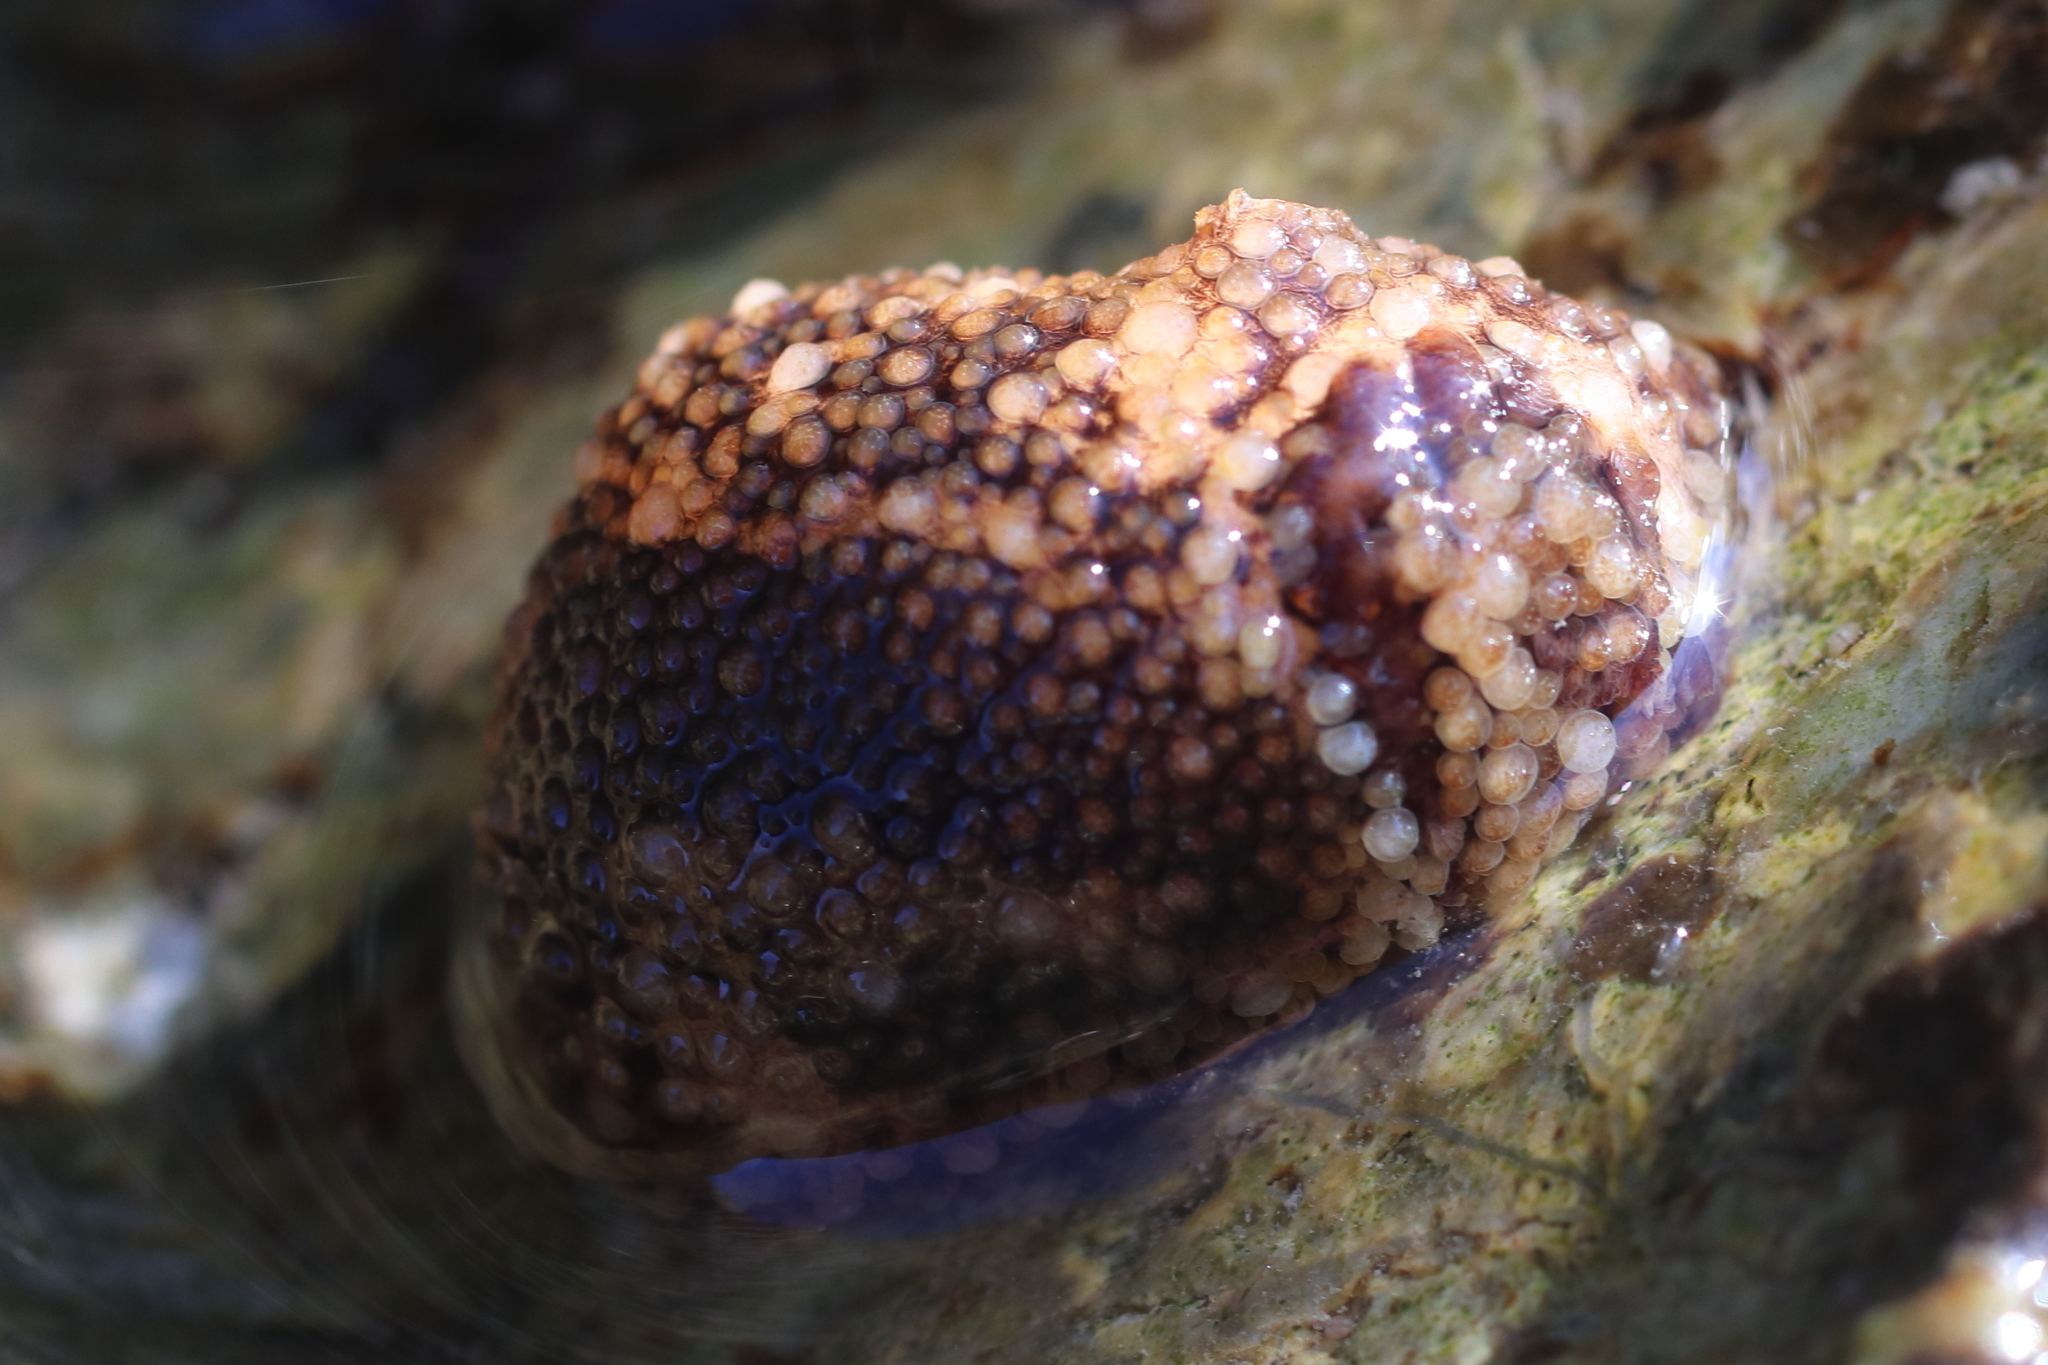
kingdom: Animalia
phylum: Mollusca
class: Gastropoda
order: Nudibranchia
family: Onchidorididae
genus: Onchidoris
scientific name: Onchidoris bilamellata
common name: Barnacle-eating onchidoris
